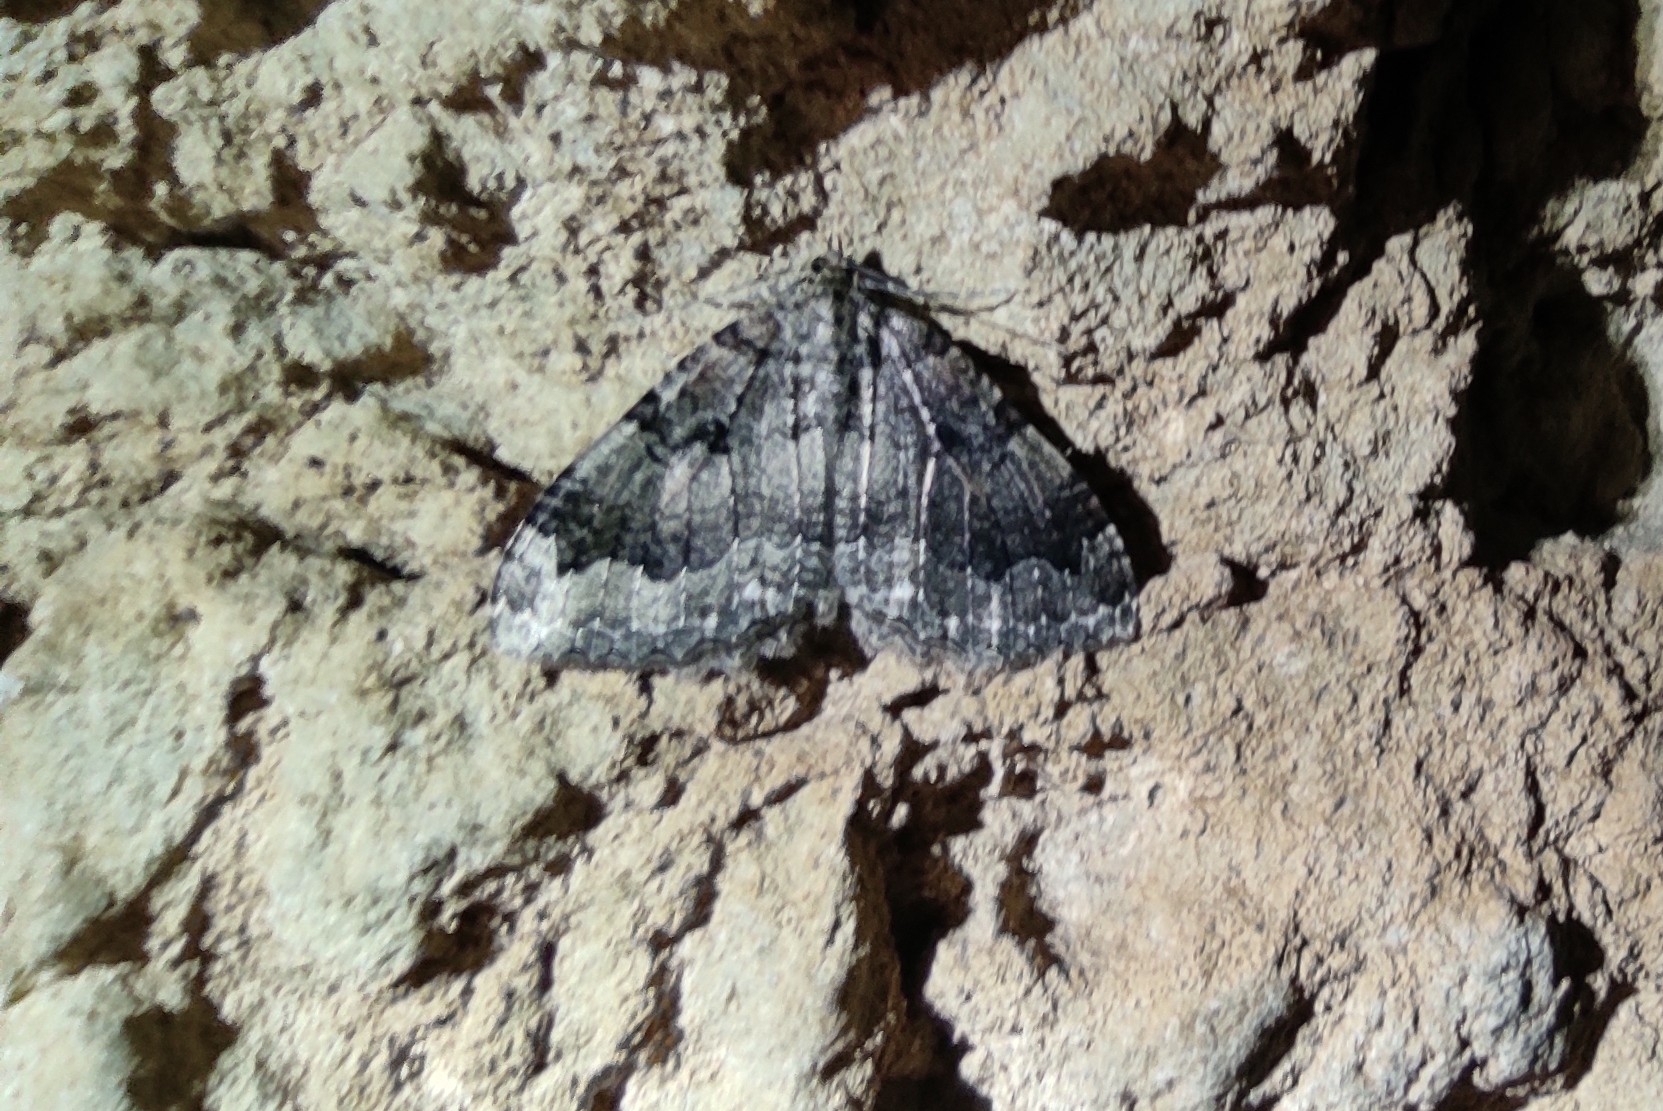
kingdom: Animalia
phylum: Arthropoda
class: Insecta
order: Lepidoptera
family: Geometridae
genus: Triphosa
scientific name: Triphosa dubitata
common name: Tissue
